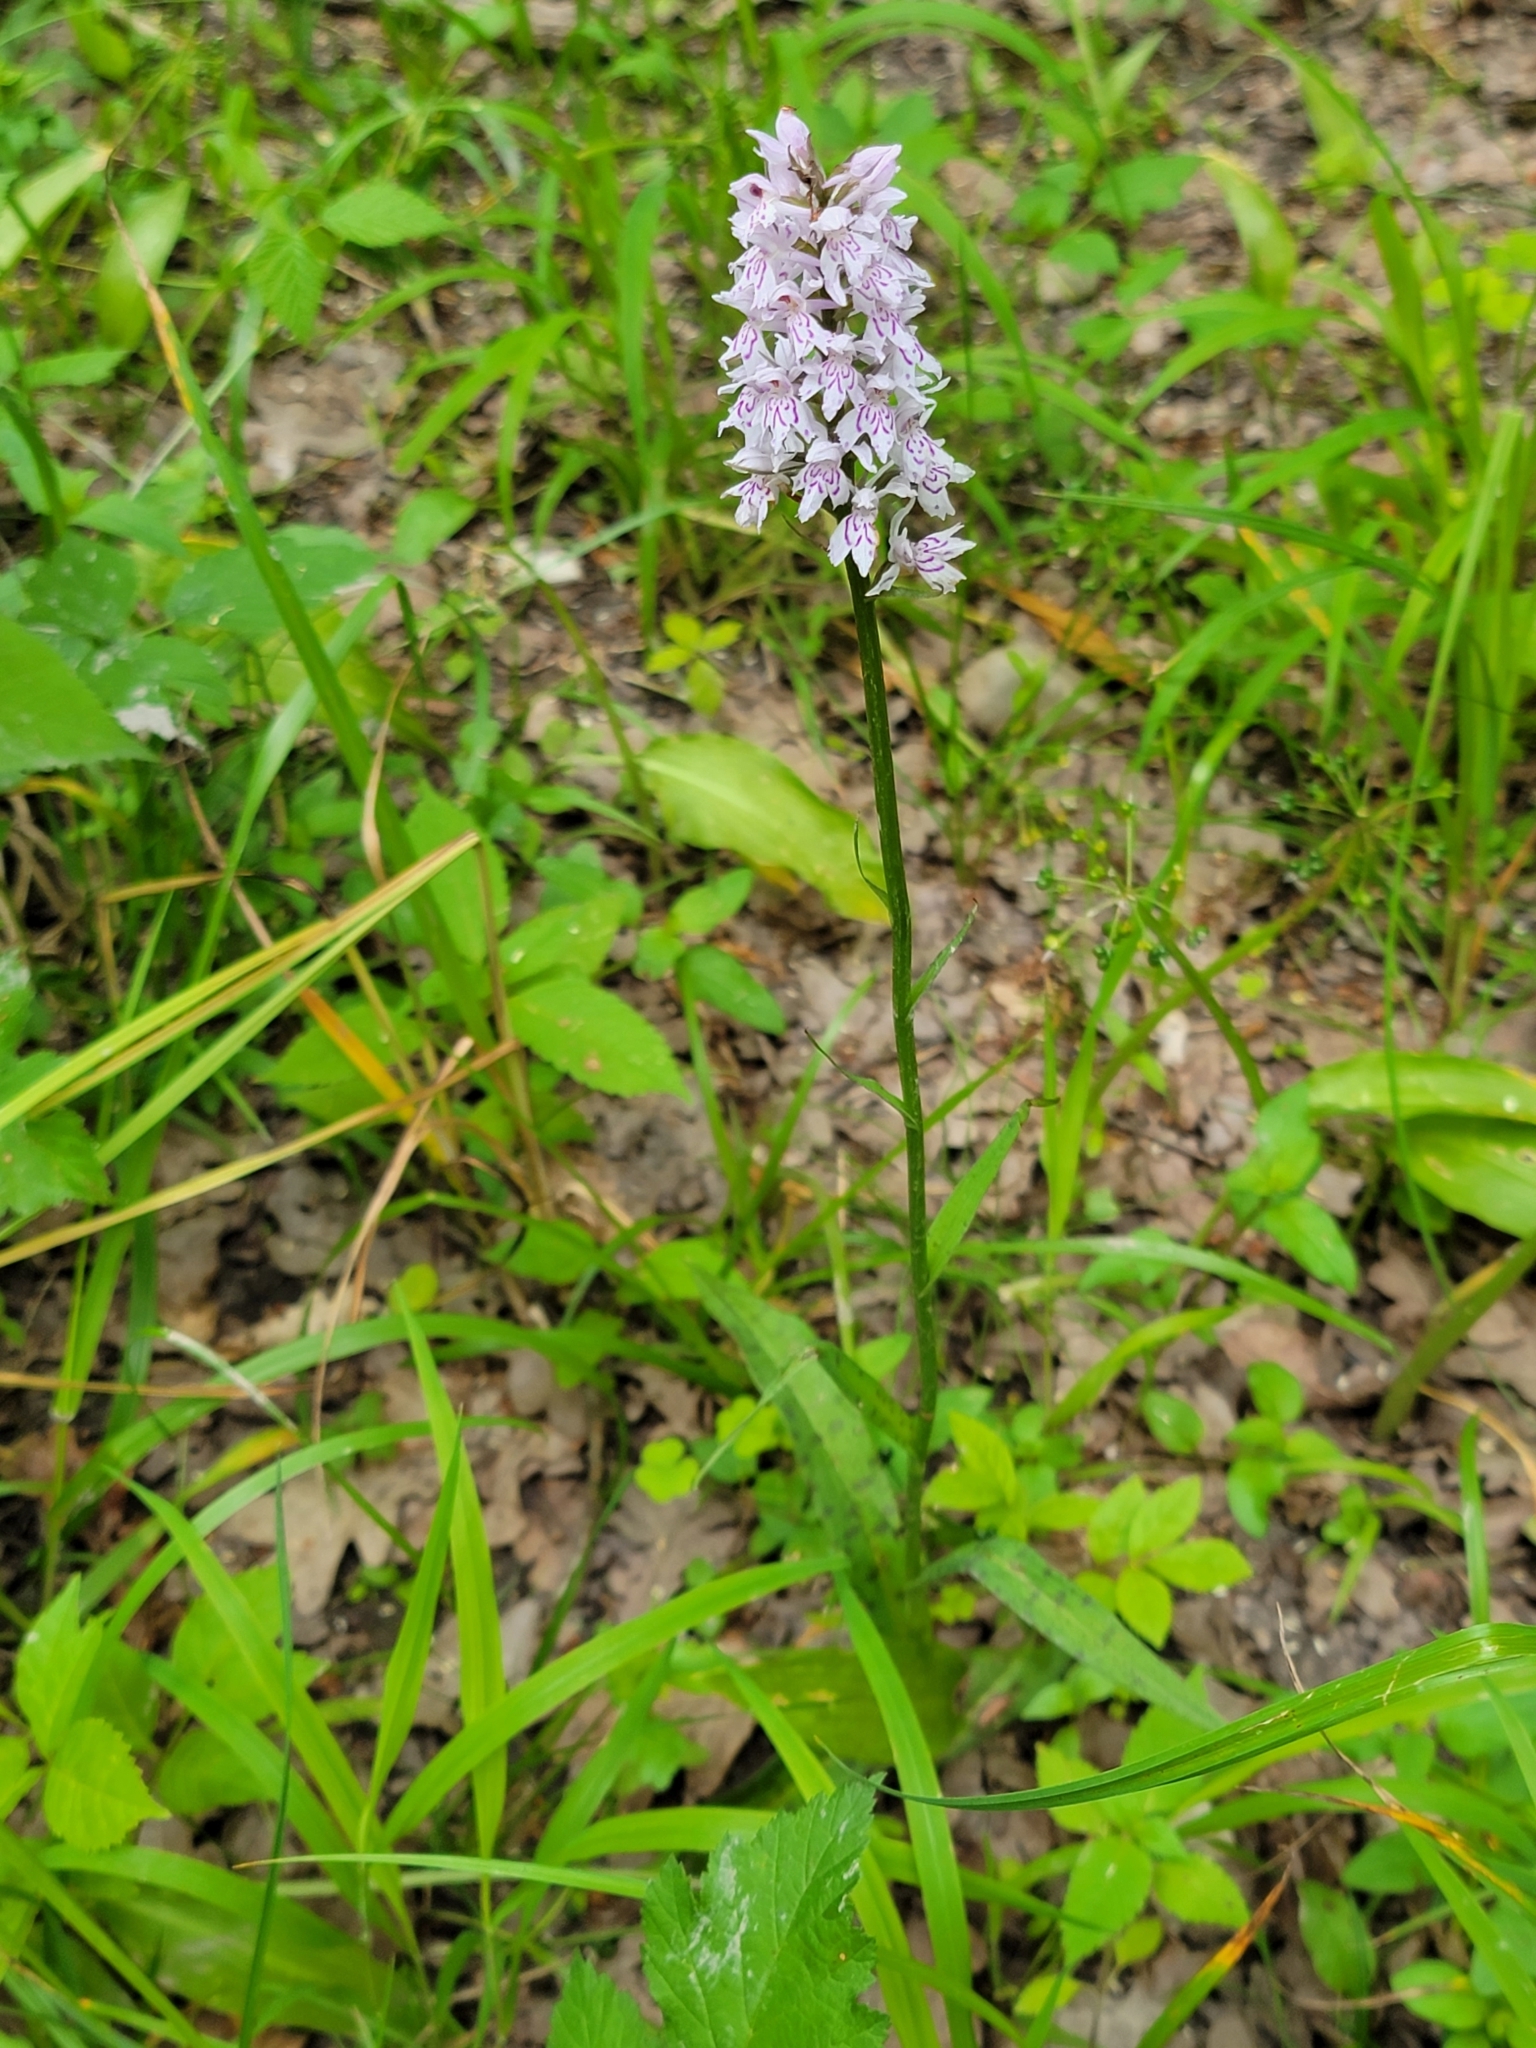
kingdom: Plantae
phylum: Tracheophyta
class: Liliopsida
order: Asparagales
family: Orchidaceae
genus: Dactylorhiza
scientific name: Dactylorhiza maculata
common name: Heath spotted-orchid
